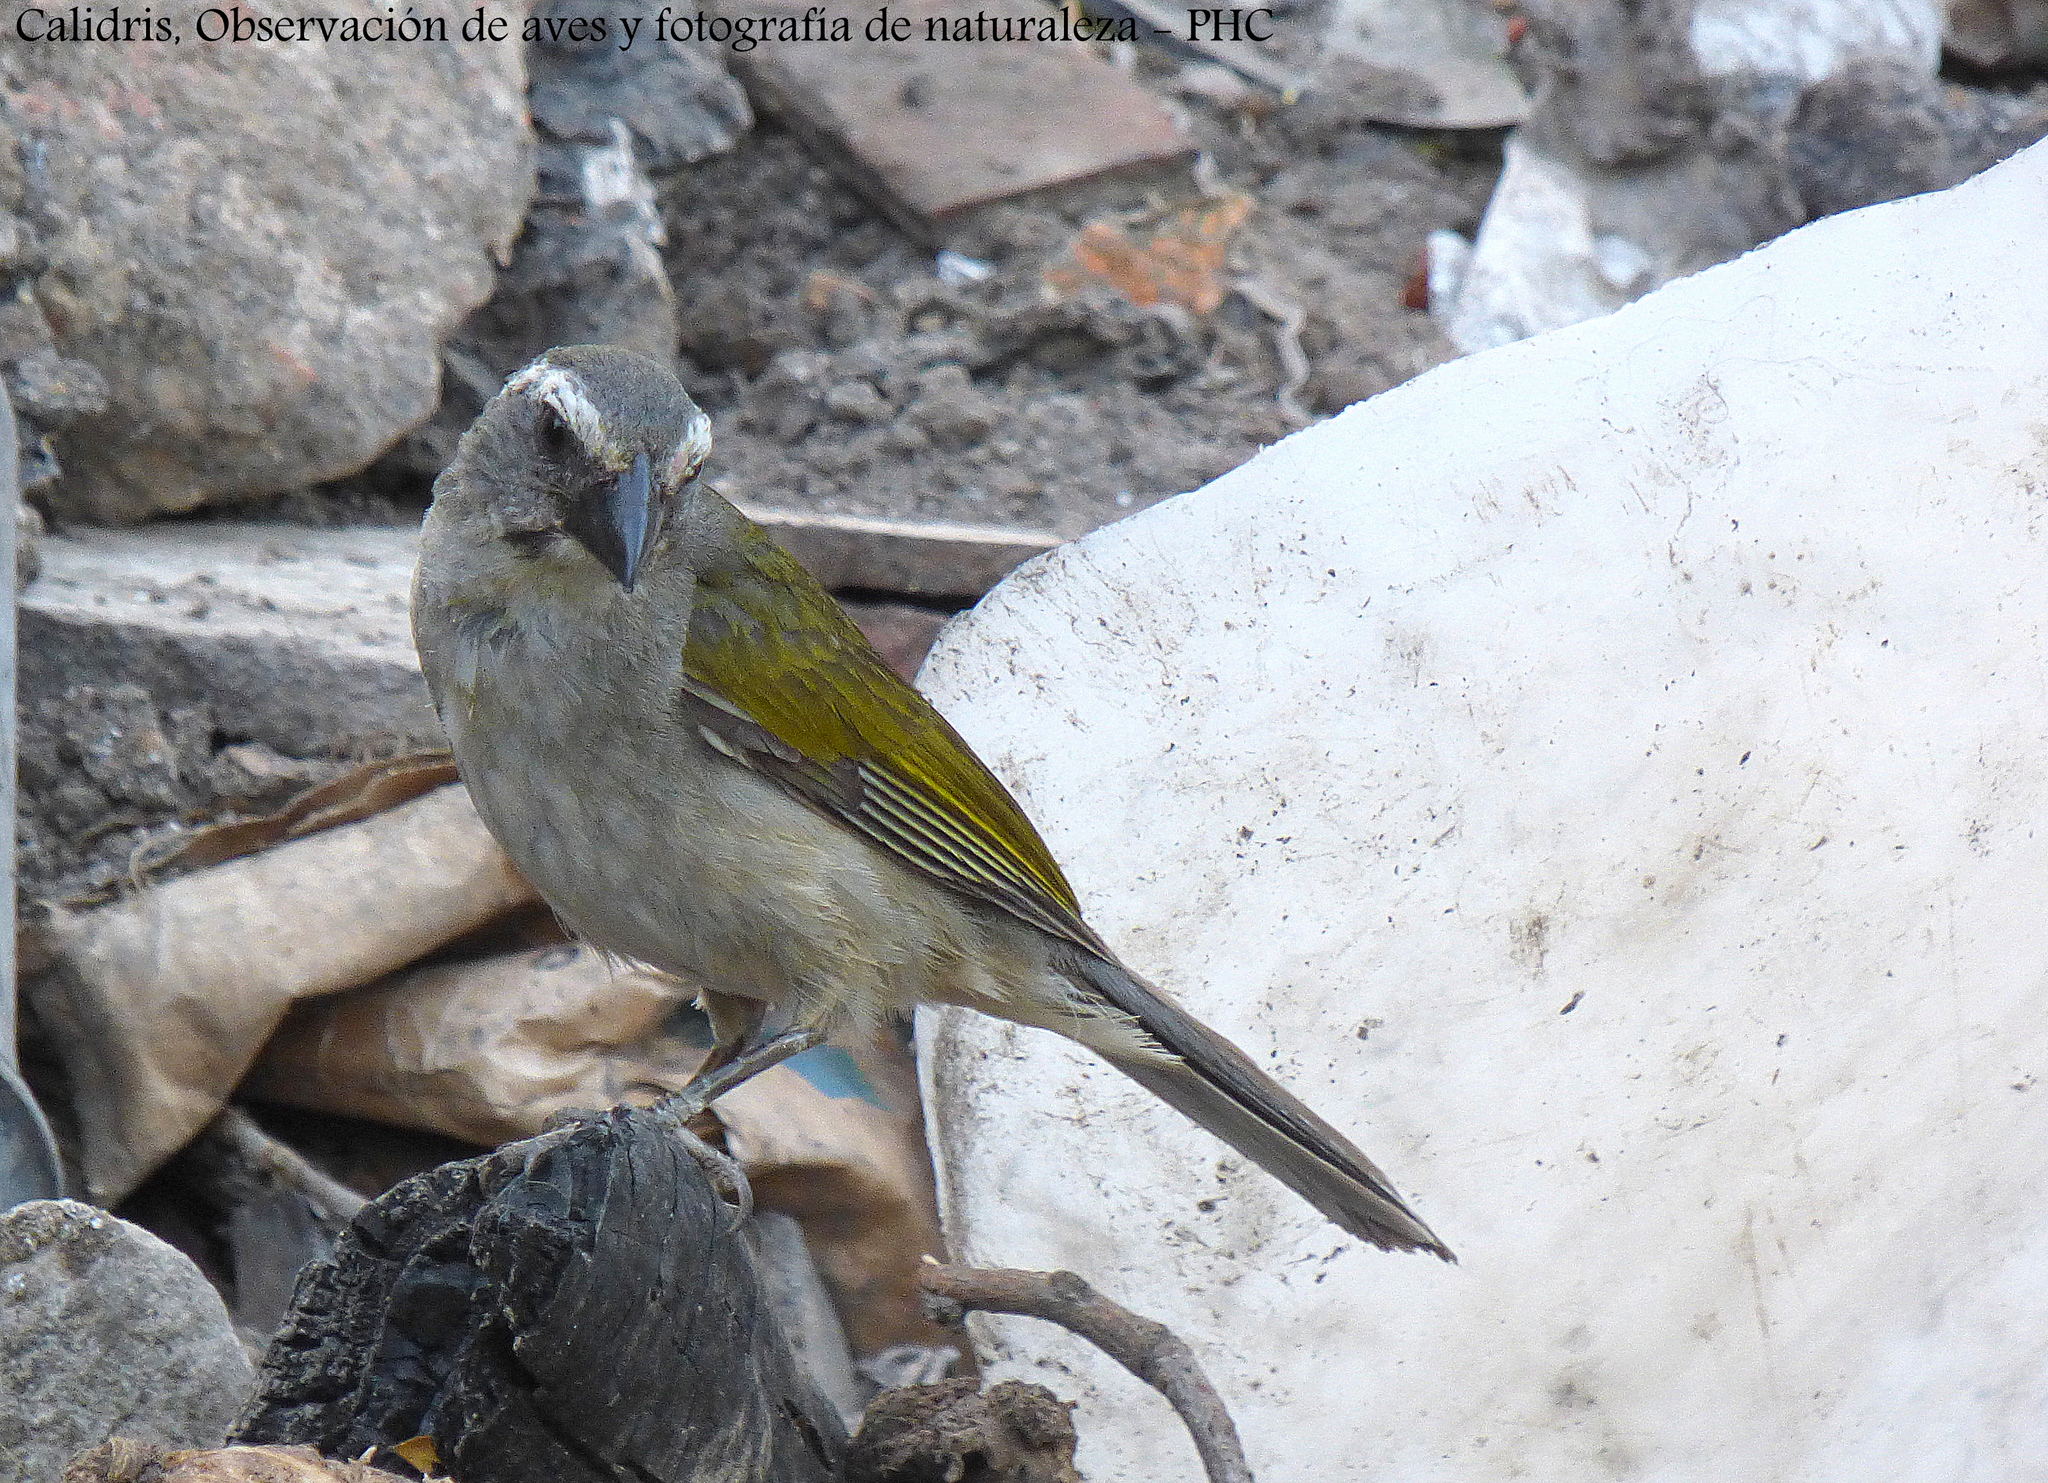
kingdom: Animalia
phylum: Chordata
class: Aves
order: Passeriformes
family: Thraupidae
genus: Saltator
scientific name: Saltator similis
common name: Green-winged saltator
